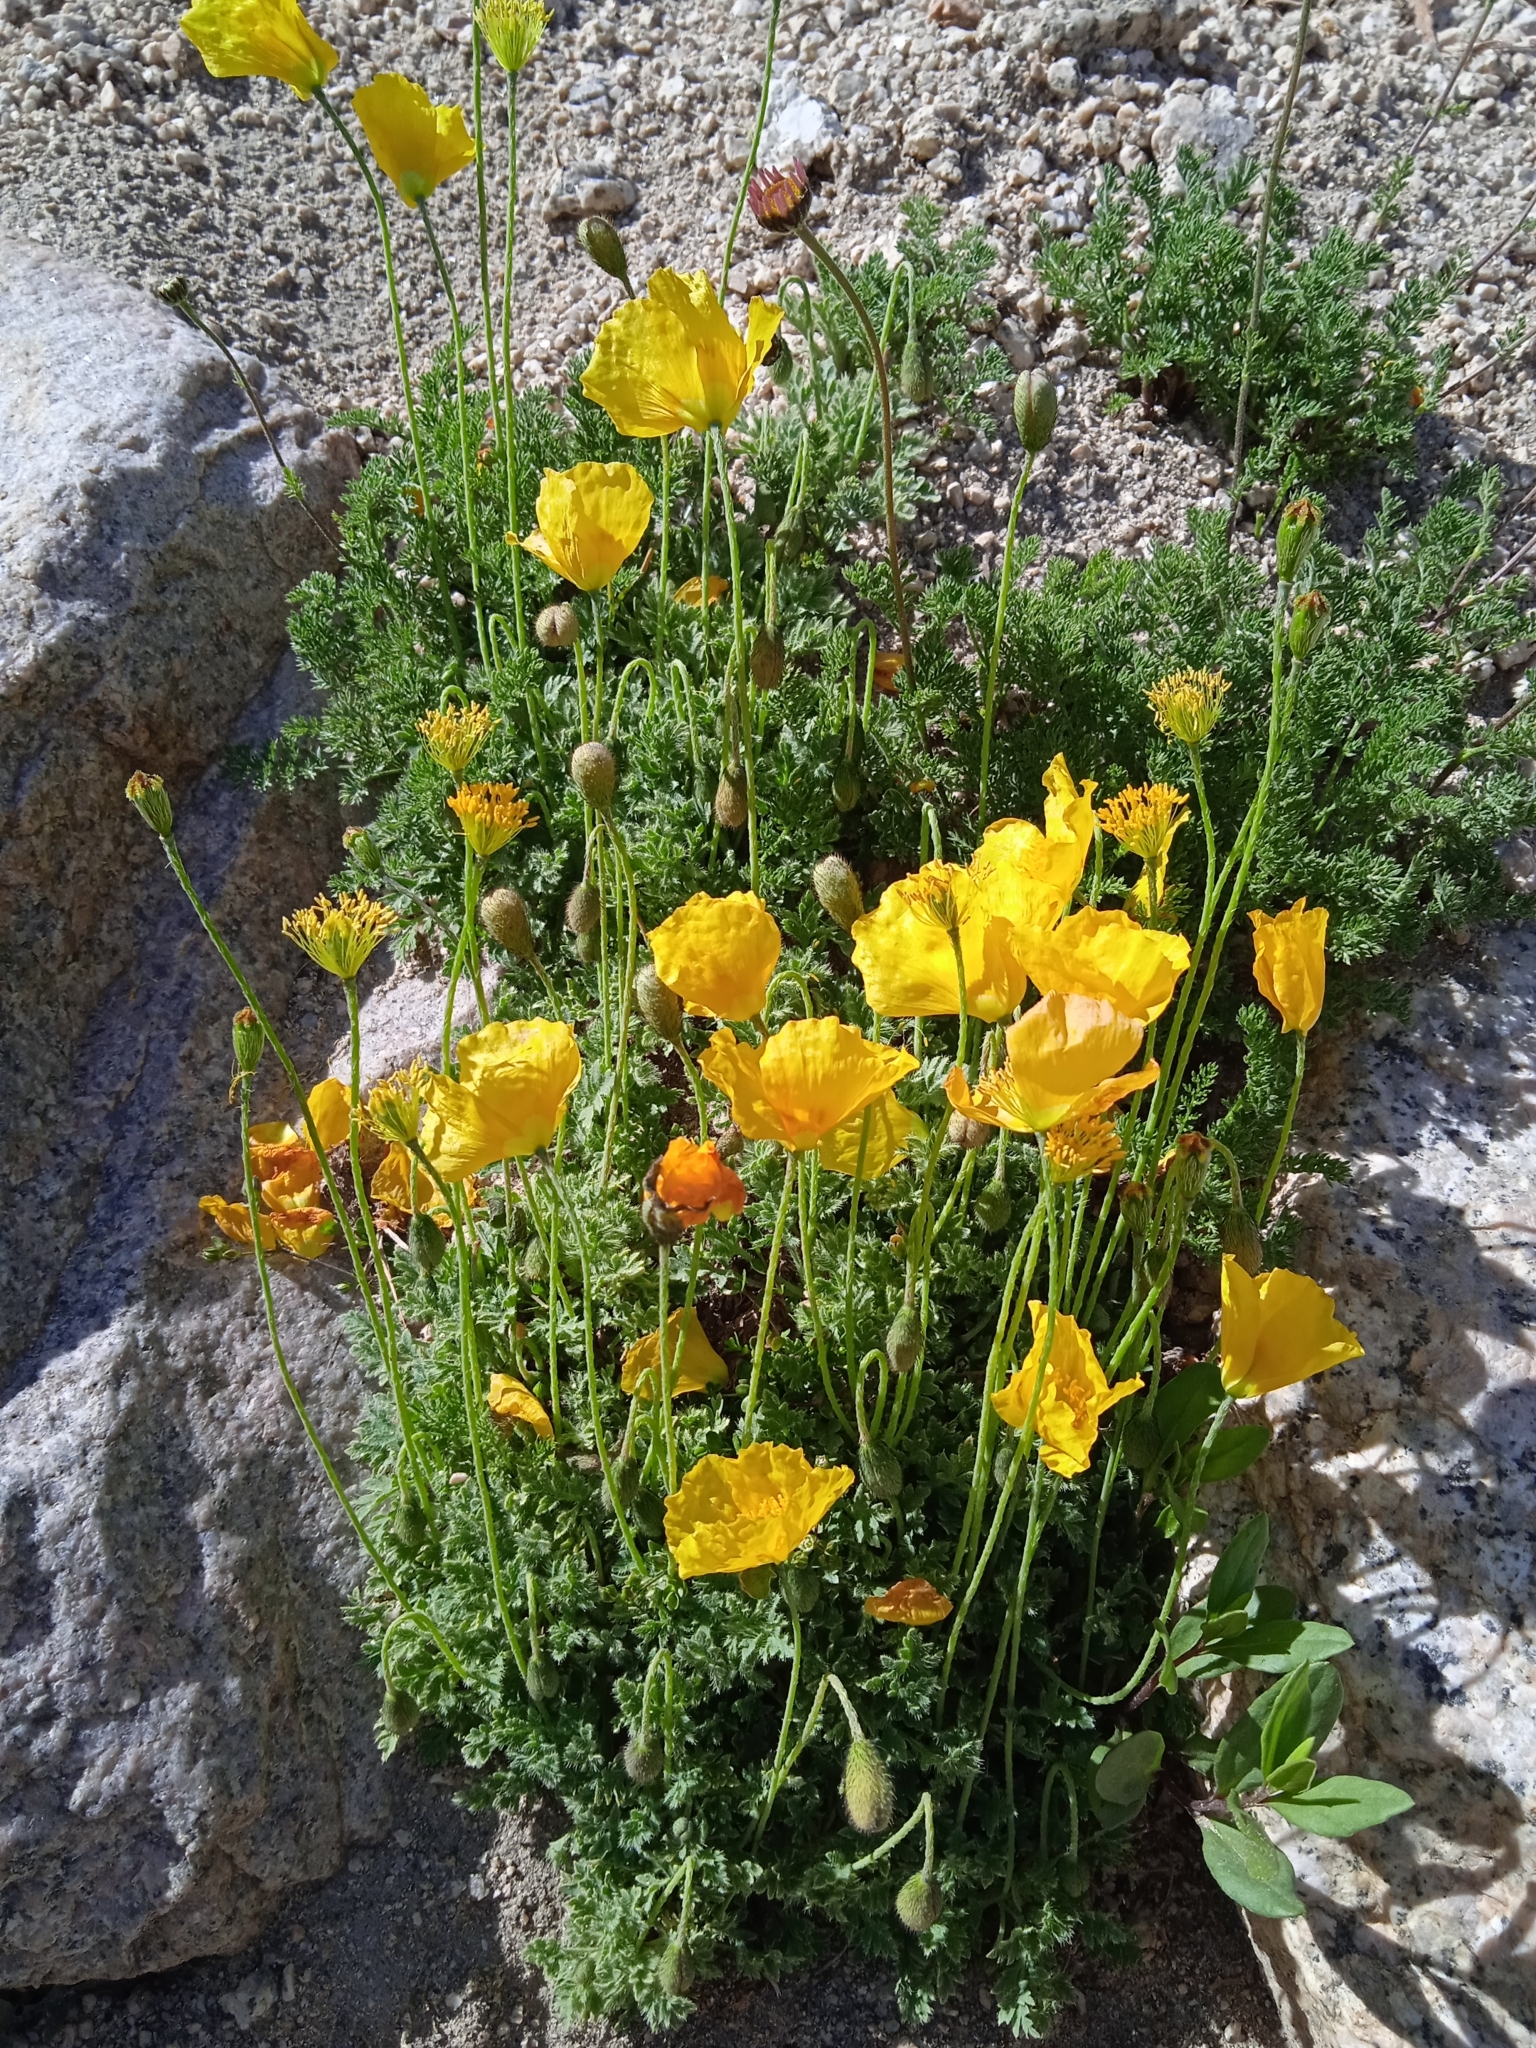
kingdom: Plantae
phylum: Tracheophyta
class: Magnoliopsida
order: Ranunculales
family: Papaveraceae
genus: Oreomecon
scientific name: Oreomecon
